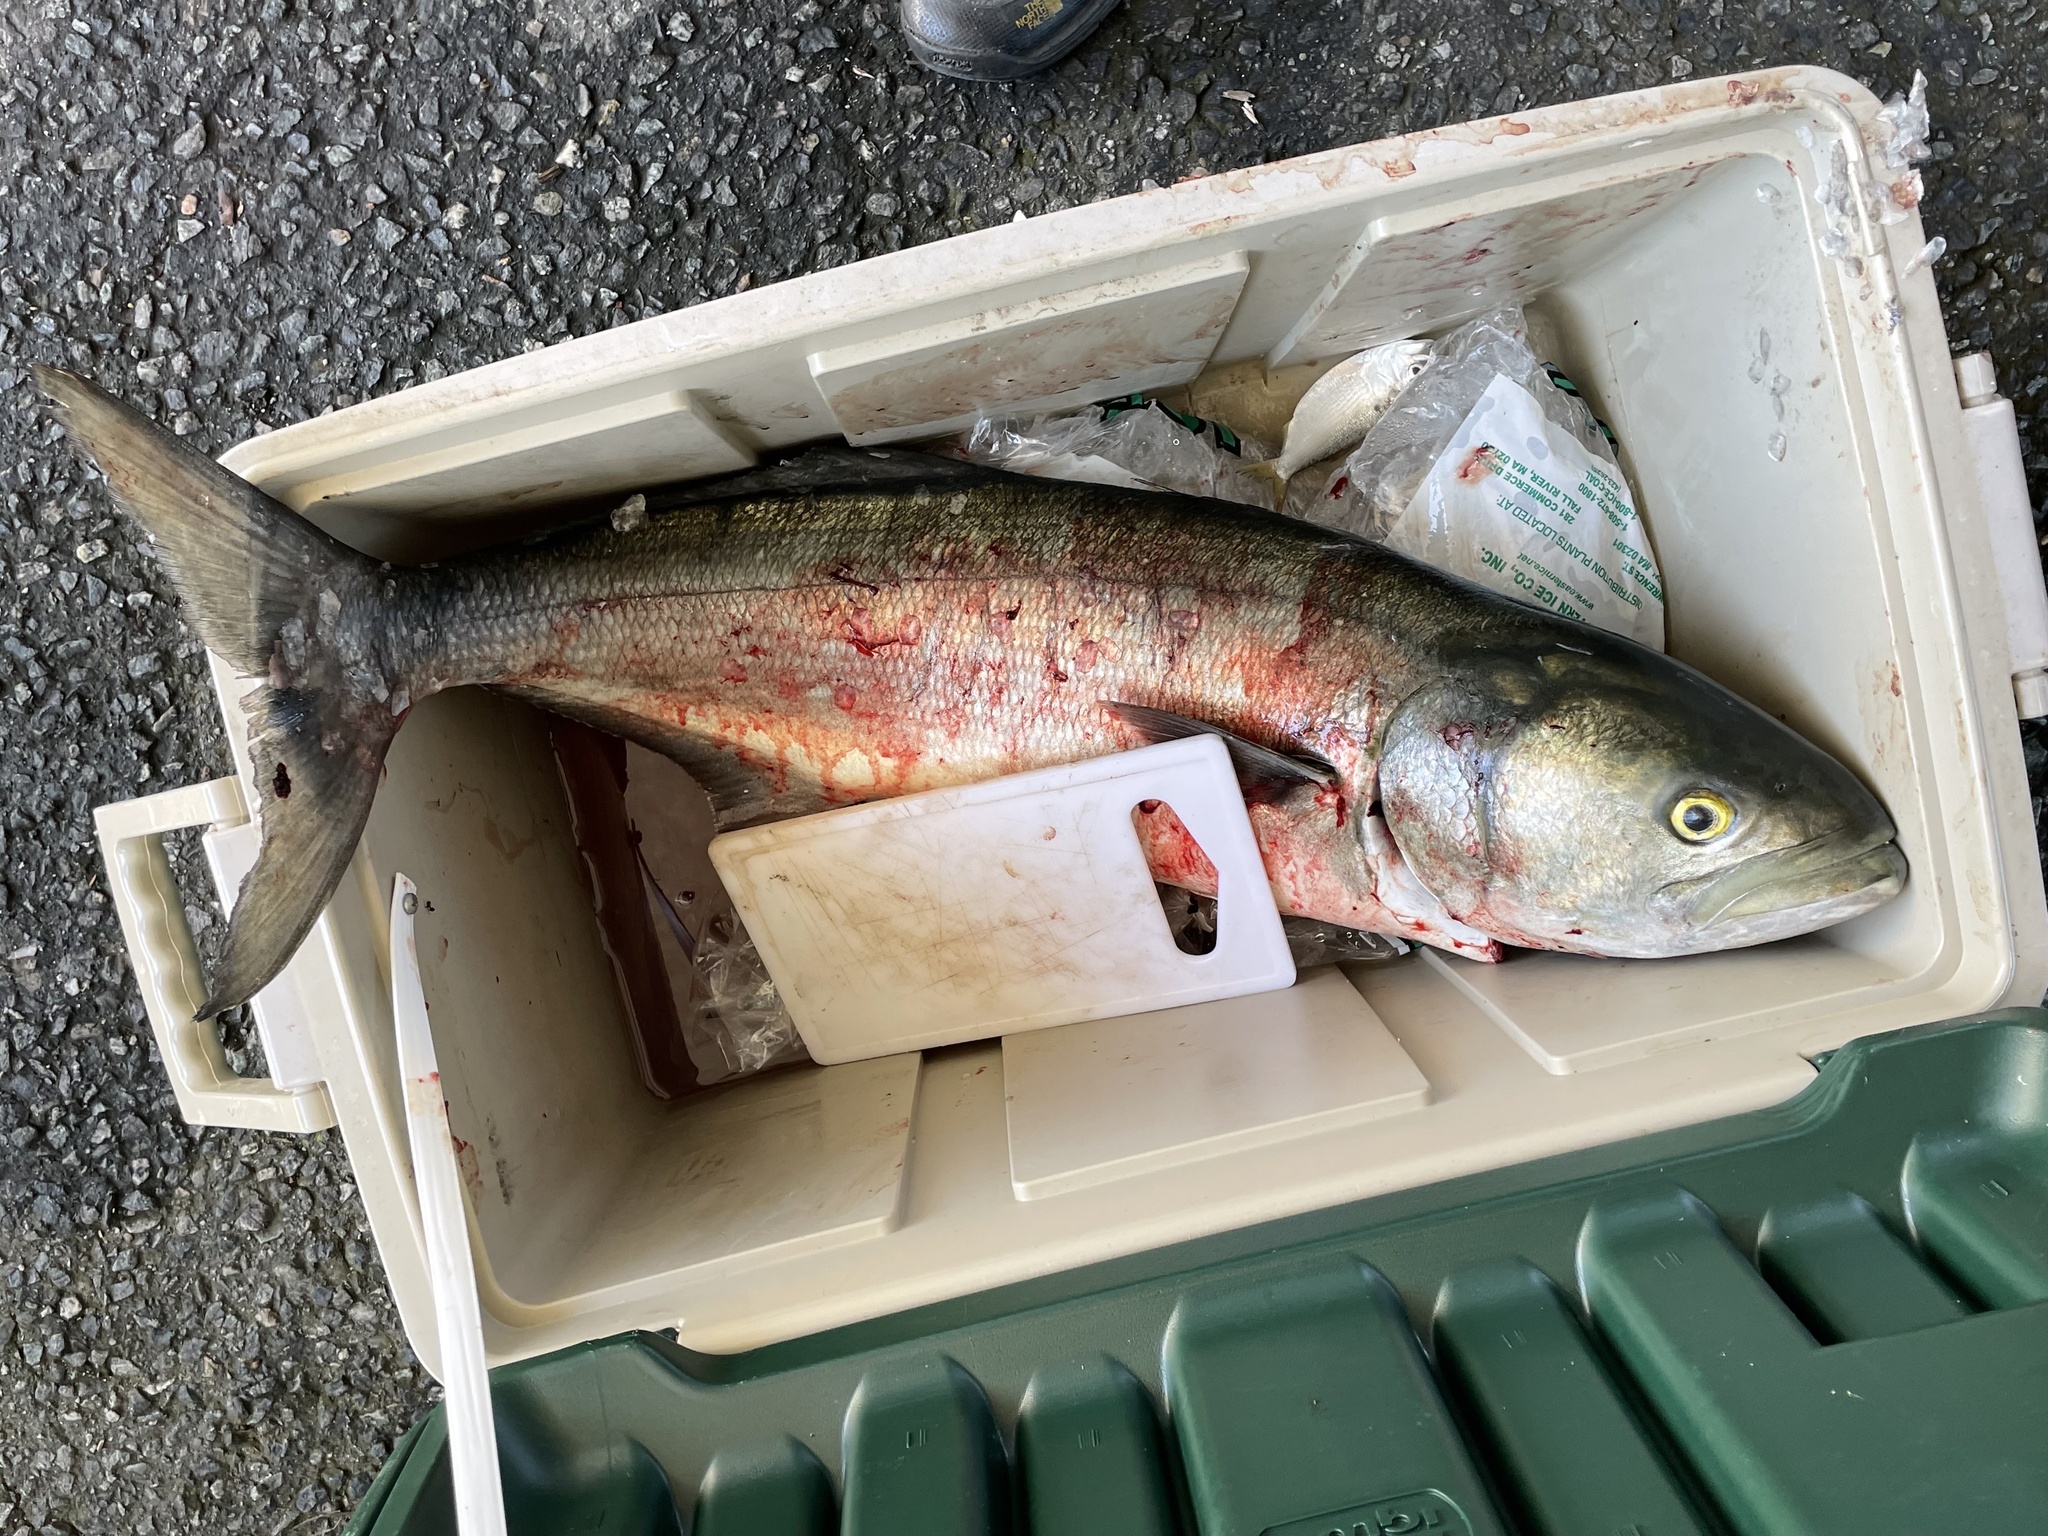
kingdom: Animalia
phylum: Chordata
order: Perciformes
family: Pomatomidae
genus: Pomatomus
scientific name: Pomatomus saltatrix
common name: Bluefish
